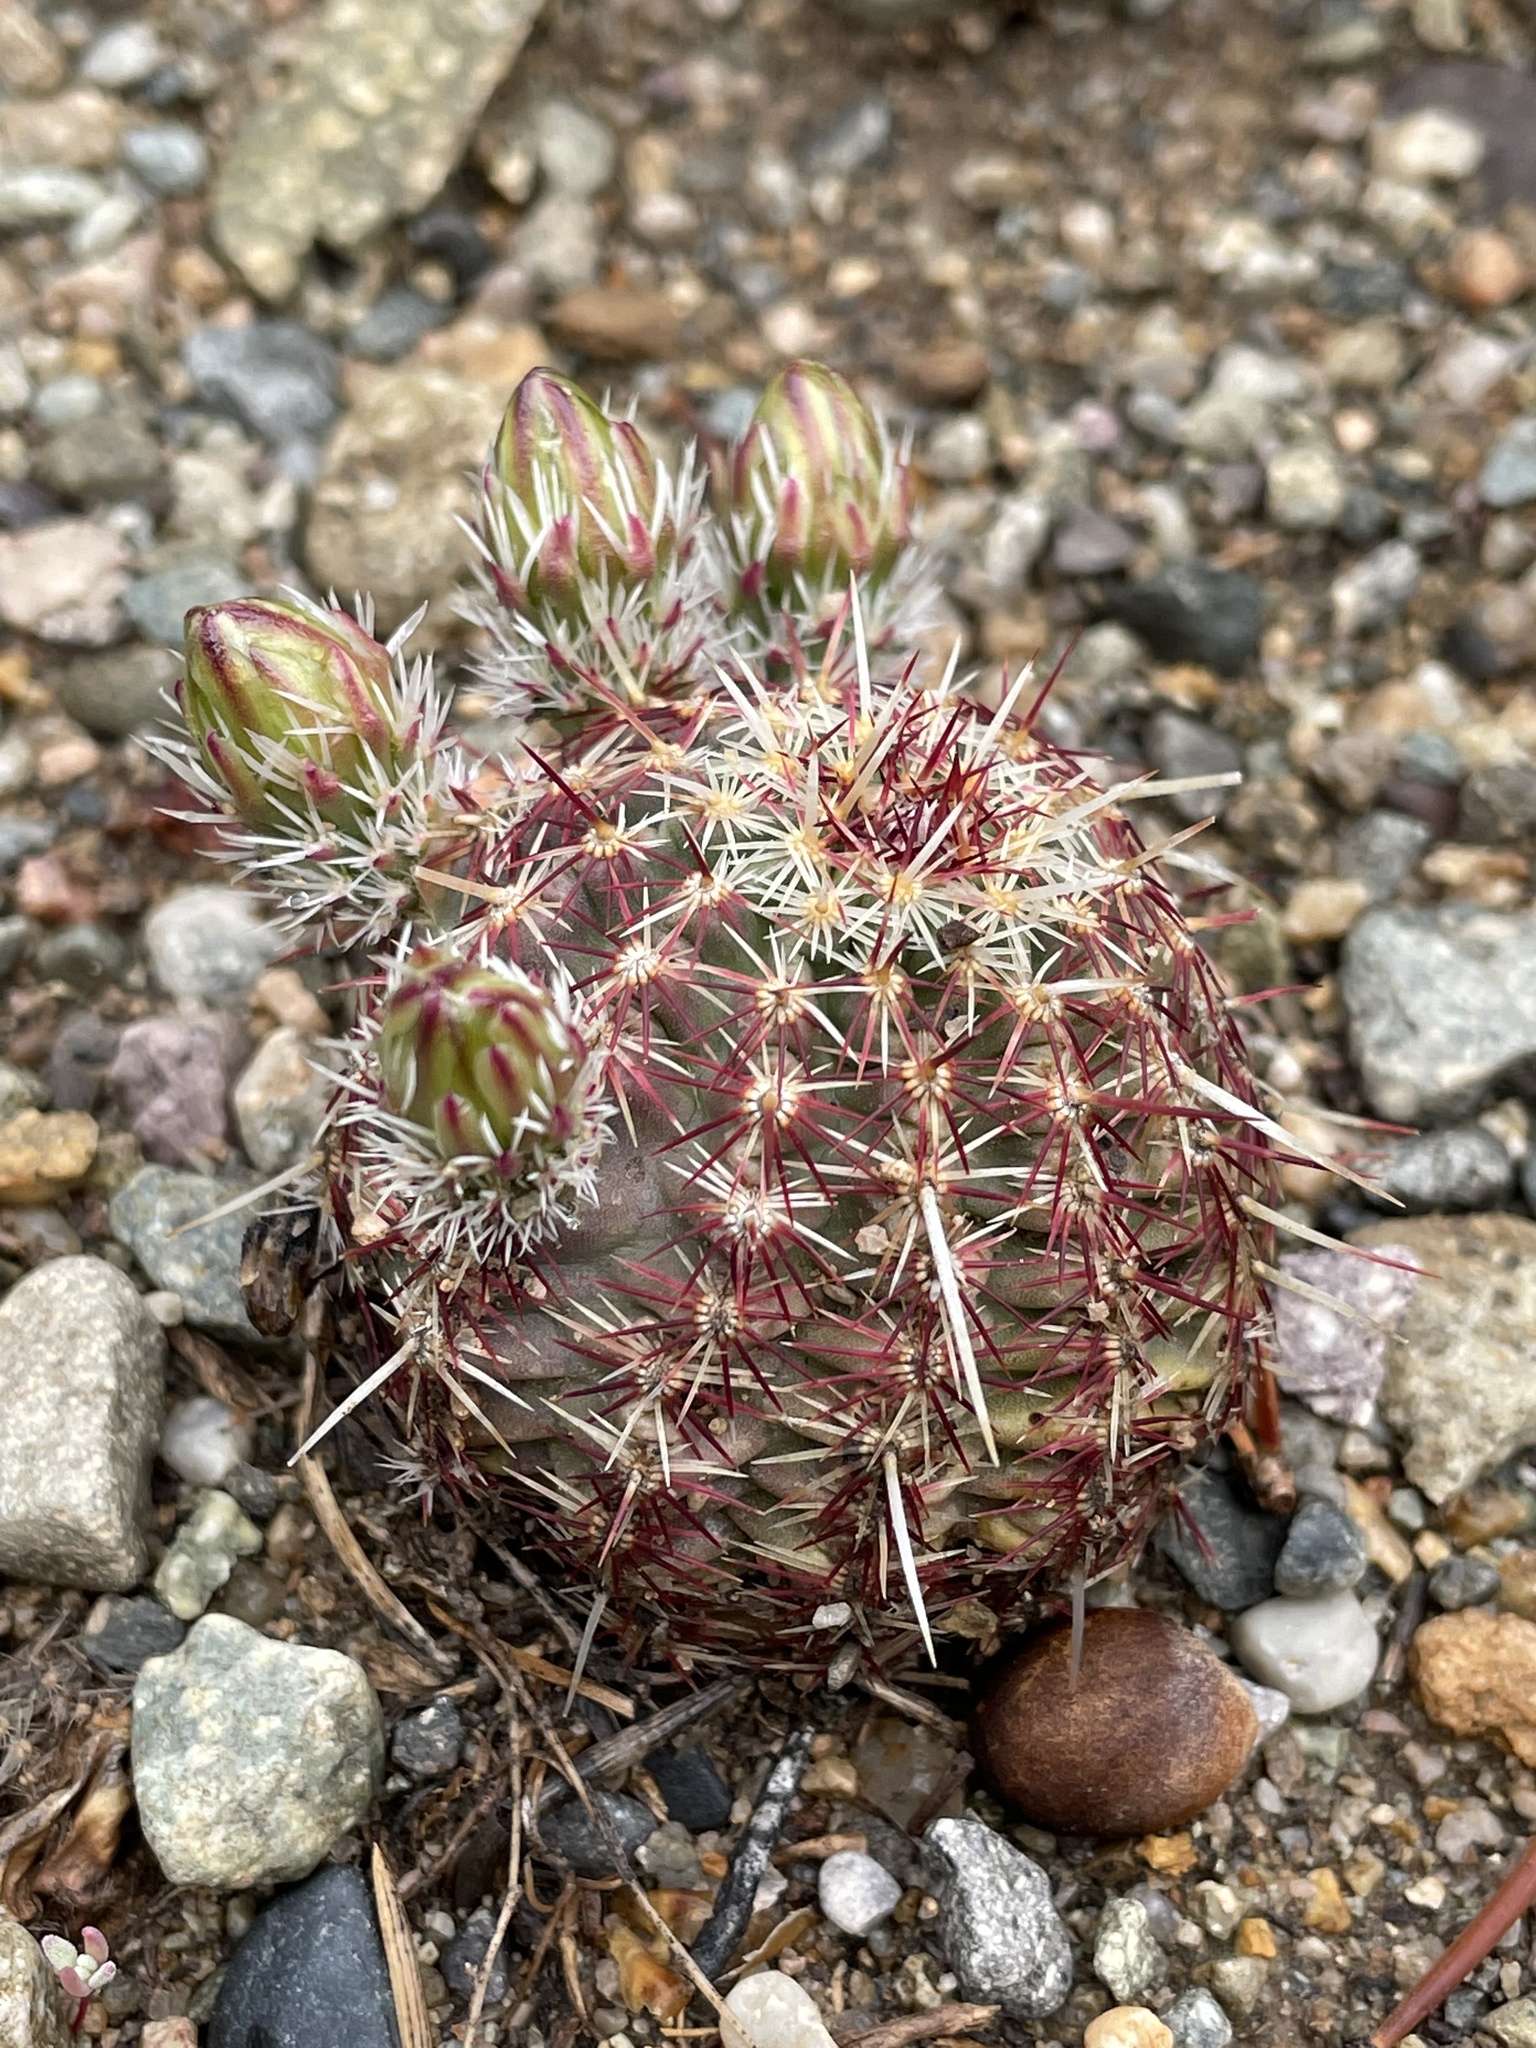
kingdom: Plantae
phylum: Tracheophyta
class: Magnoliopsida
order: Caryophyllales
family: Cactaceae
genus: Echinocereus
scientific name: Echinocereus viridiflorus
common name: Nylon hedgehog cactus
